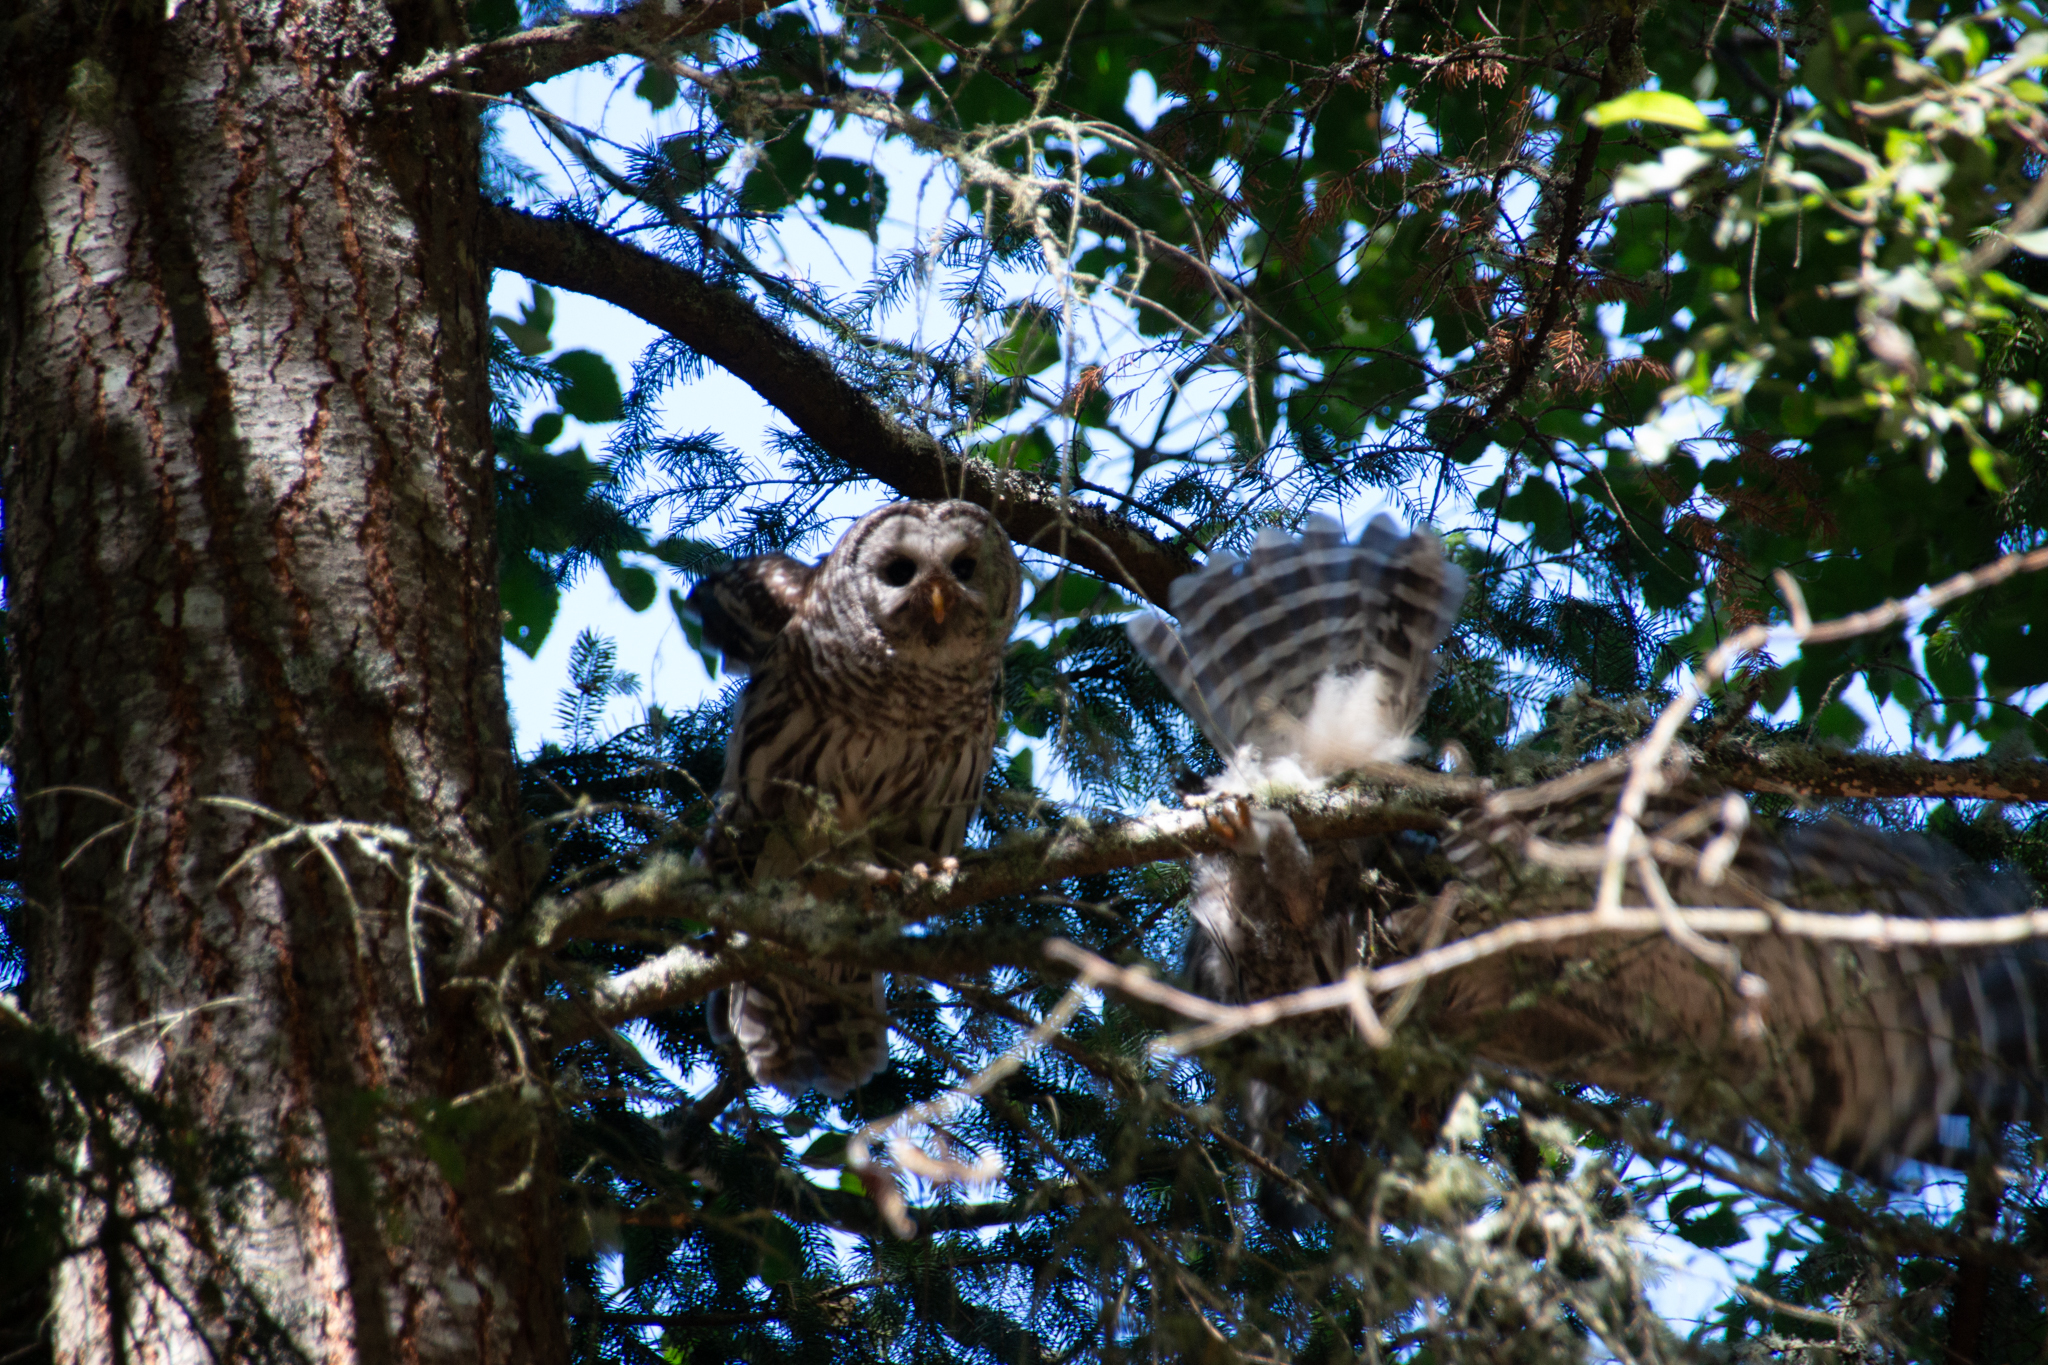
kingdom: Animalia
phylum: Chordata
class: Aves
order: Strigiformes
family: Strigidae
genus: Strix
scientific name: Strix varia
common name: Barred owl
